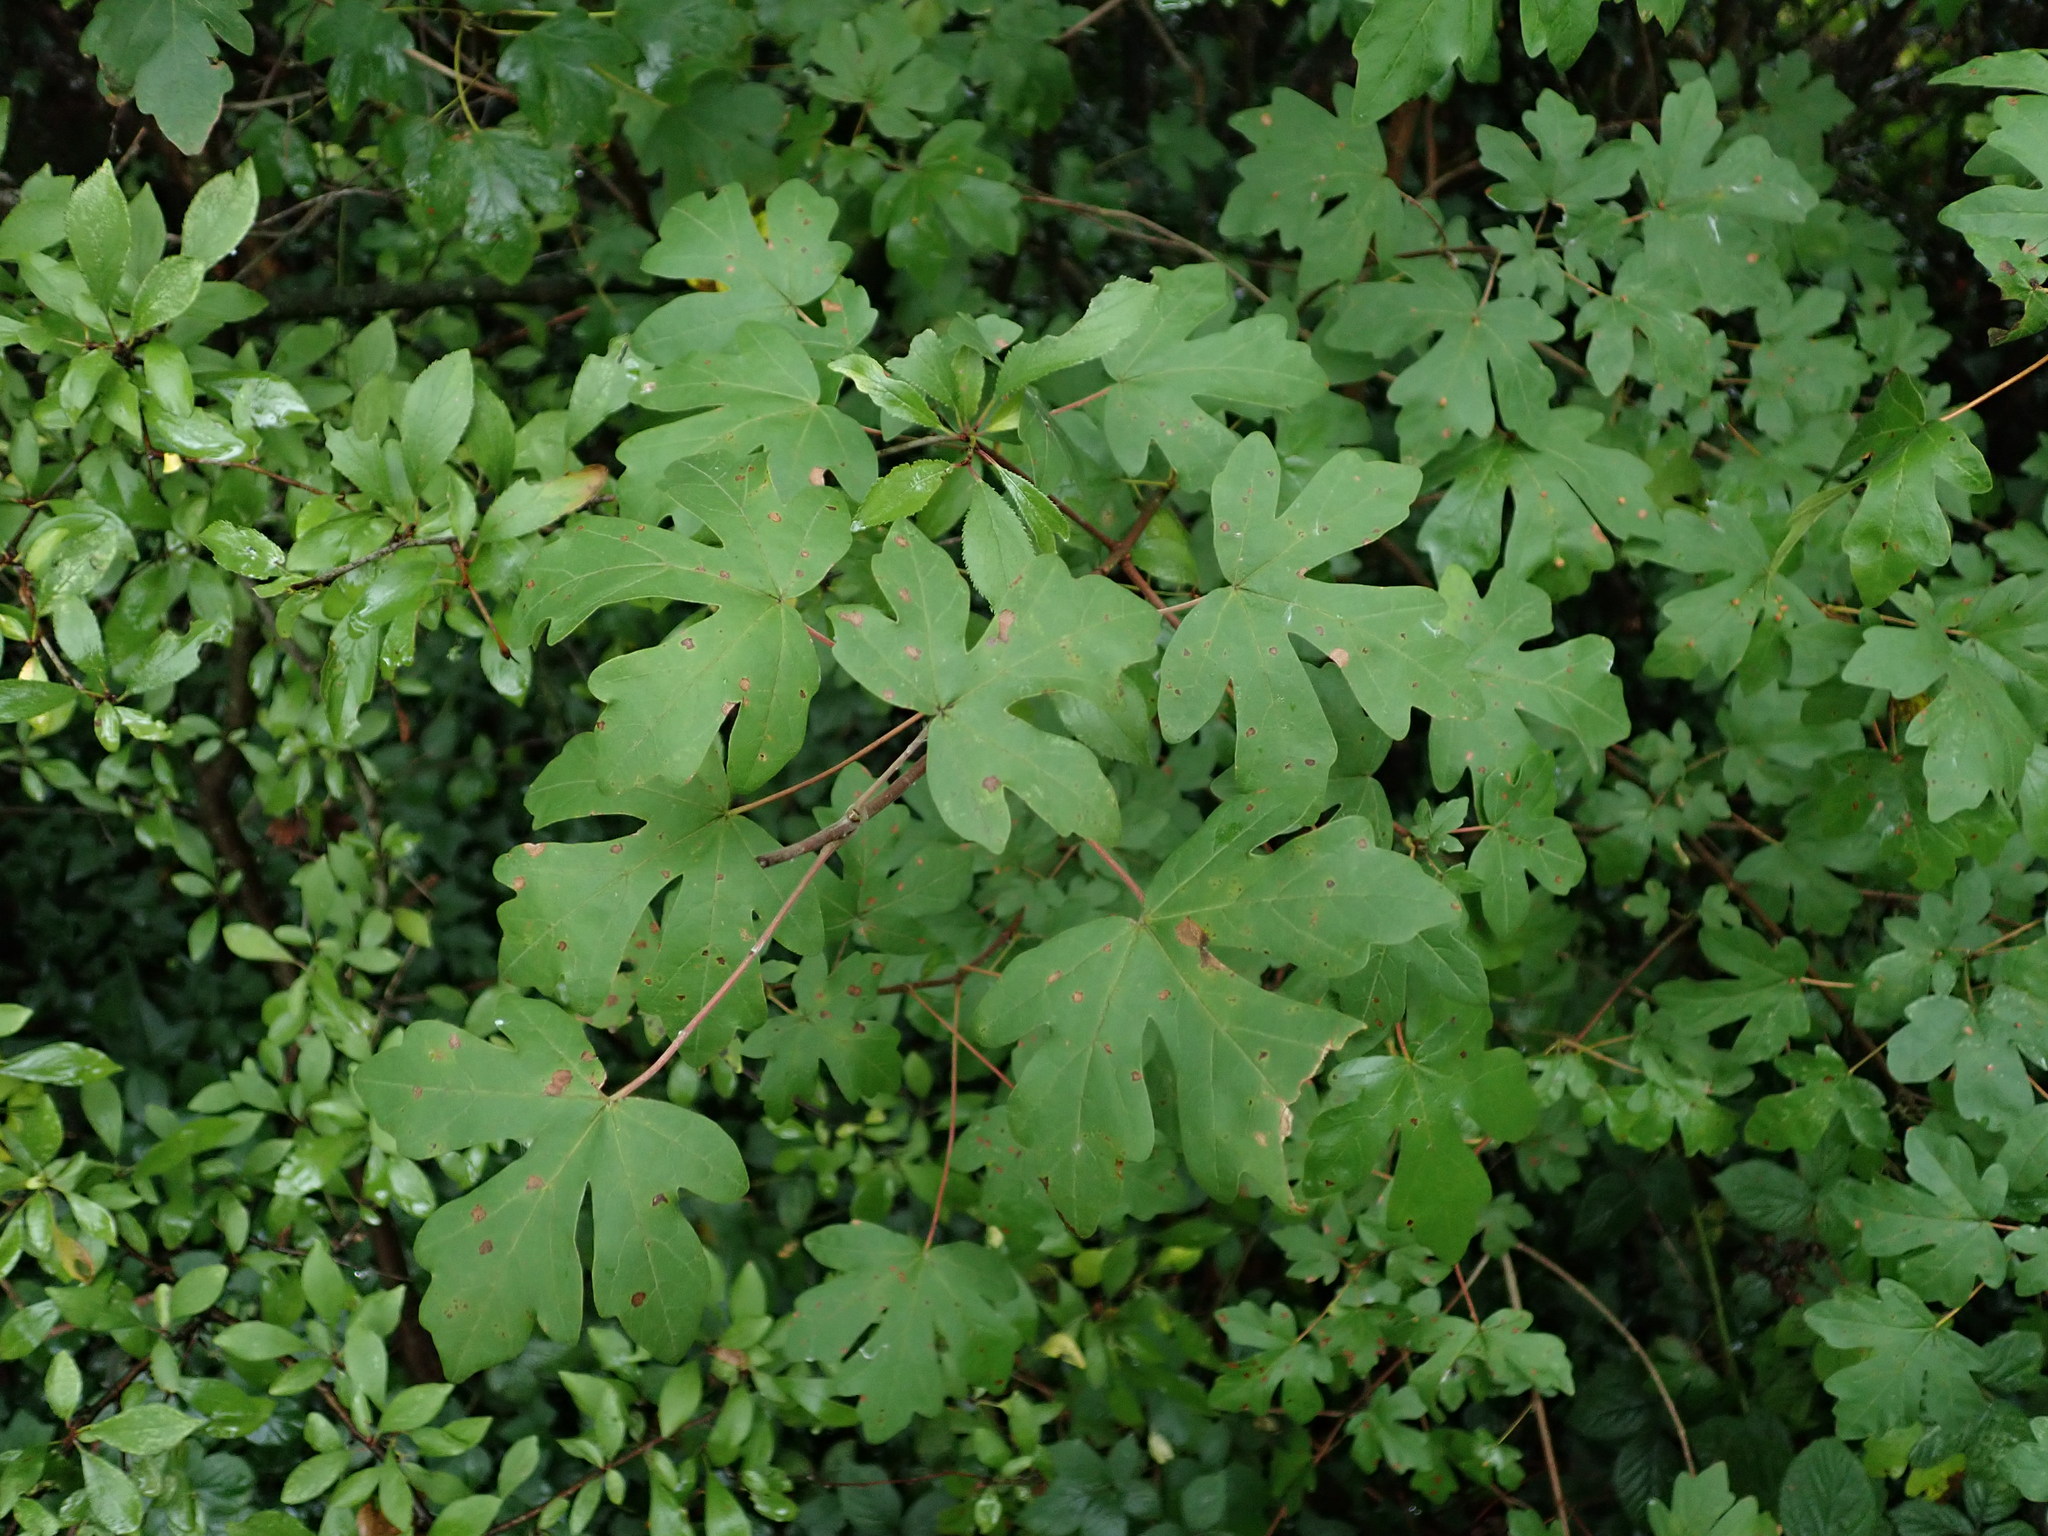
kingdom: Plantae
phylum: Tracheophyta
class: Magnoliopsida
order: Sapindales
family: Sapindaceae
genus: Acer
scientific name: Acer campestre
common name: Field maple
